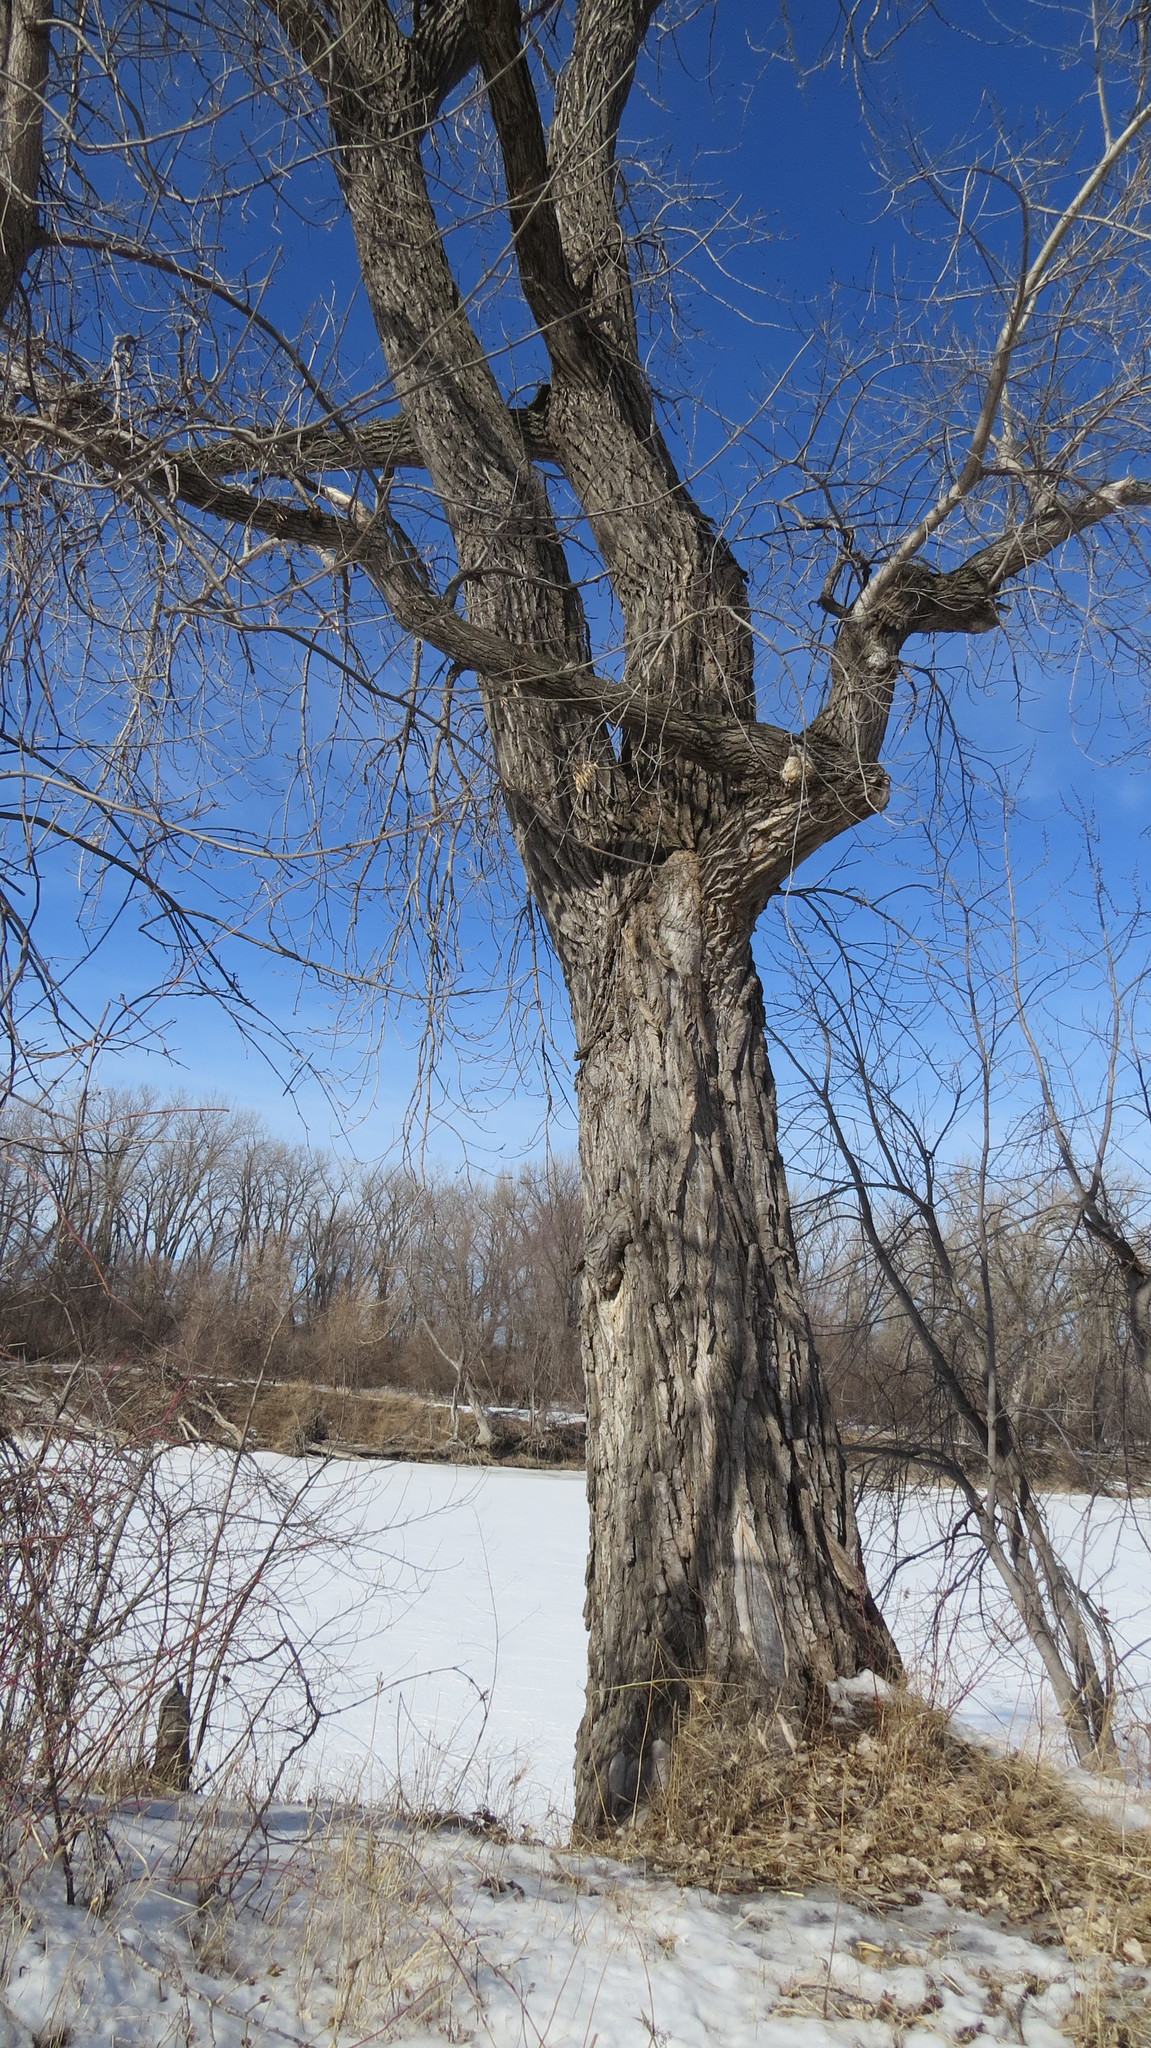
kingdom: Plantae
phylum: Tracheophyta
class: Magnoliopsida
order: Malpighiales
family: Salicaceae
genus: Populus
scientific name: Populus deltoides
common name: Eastern cottonwood
